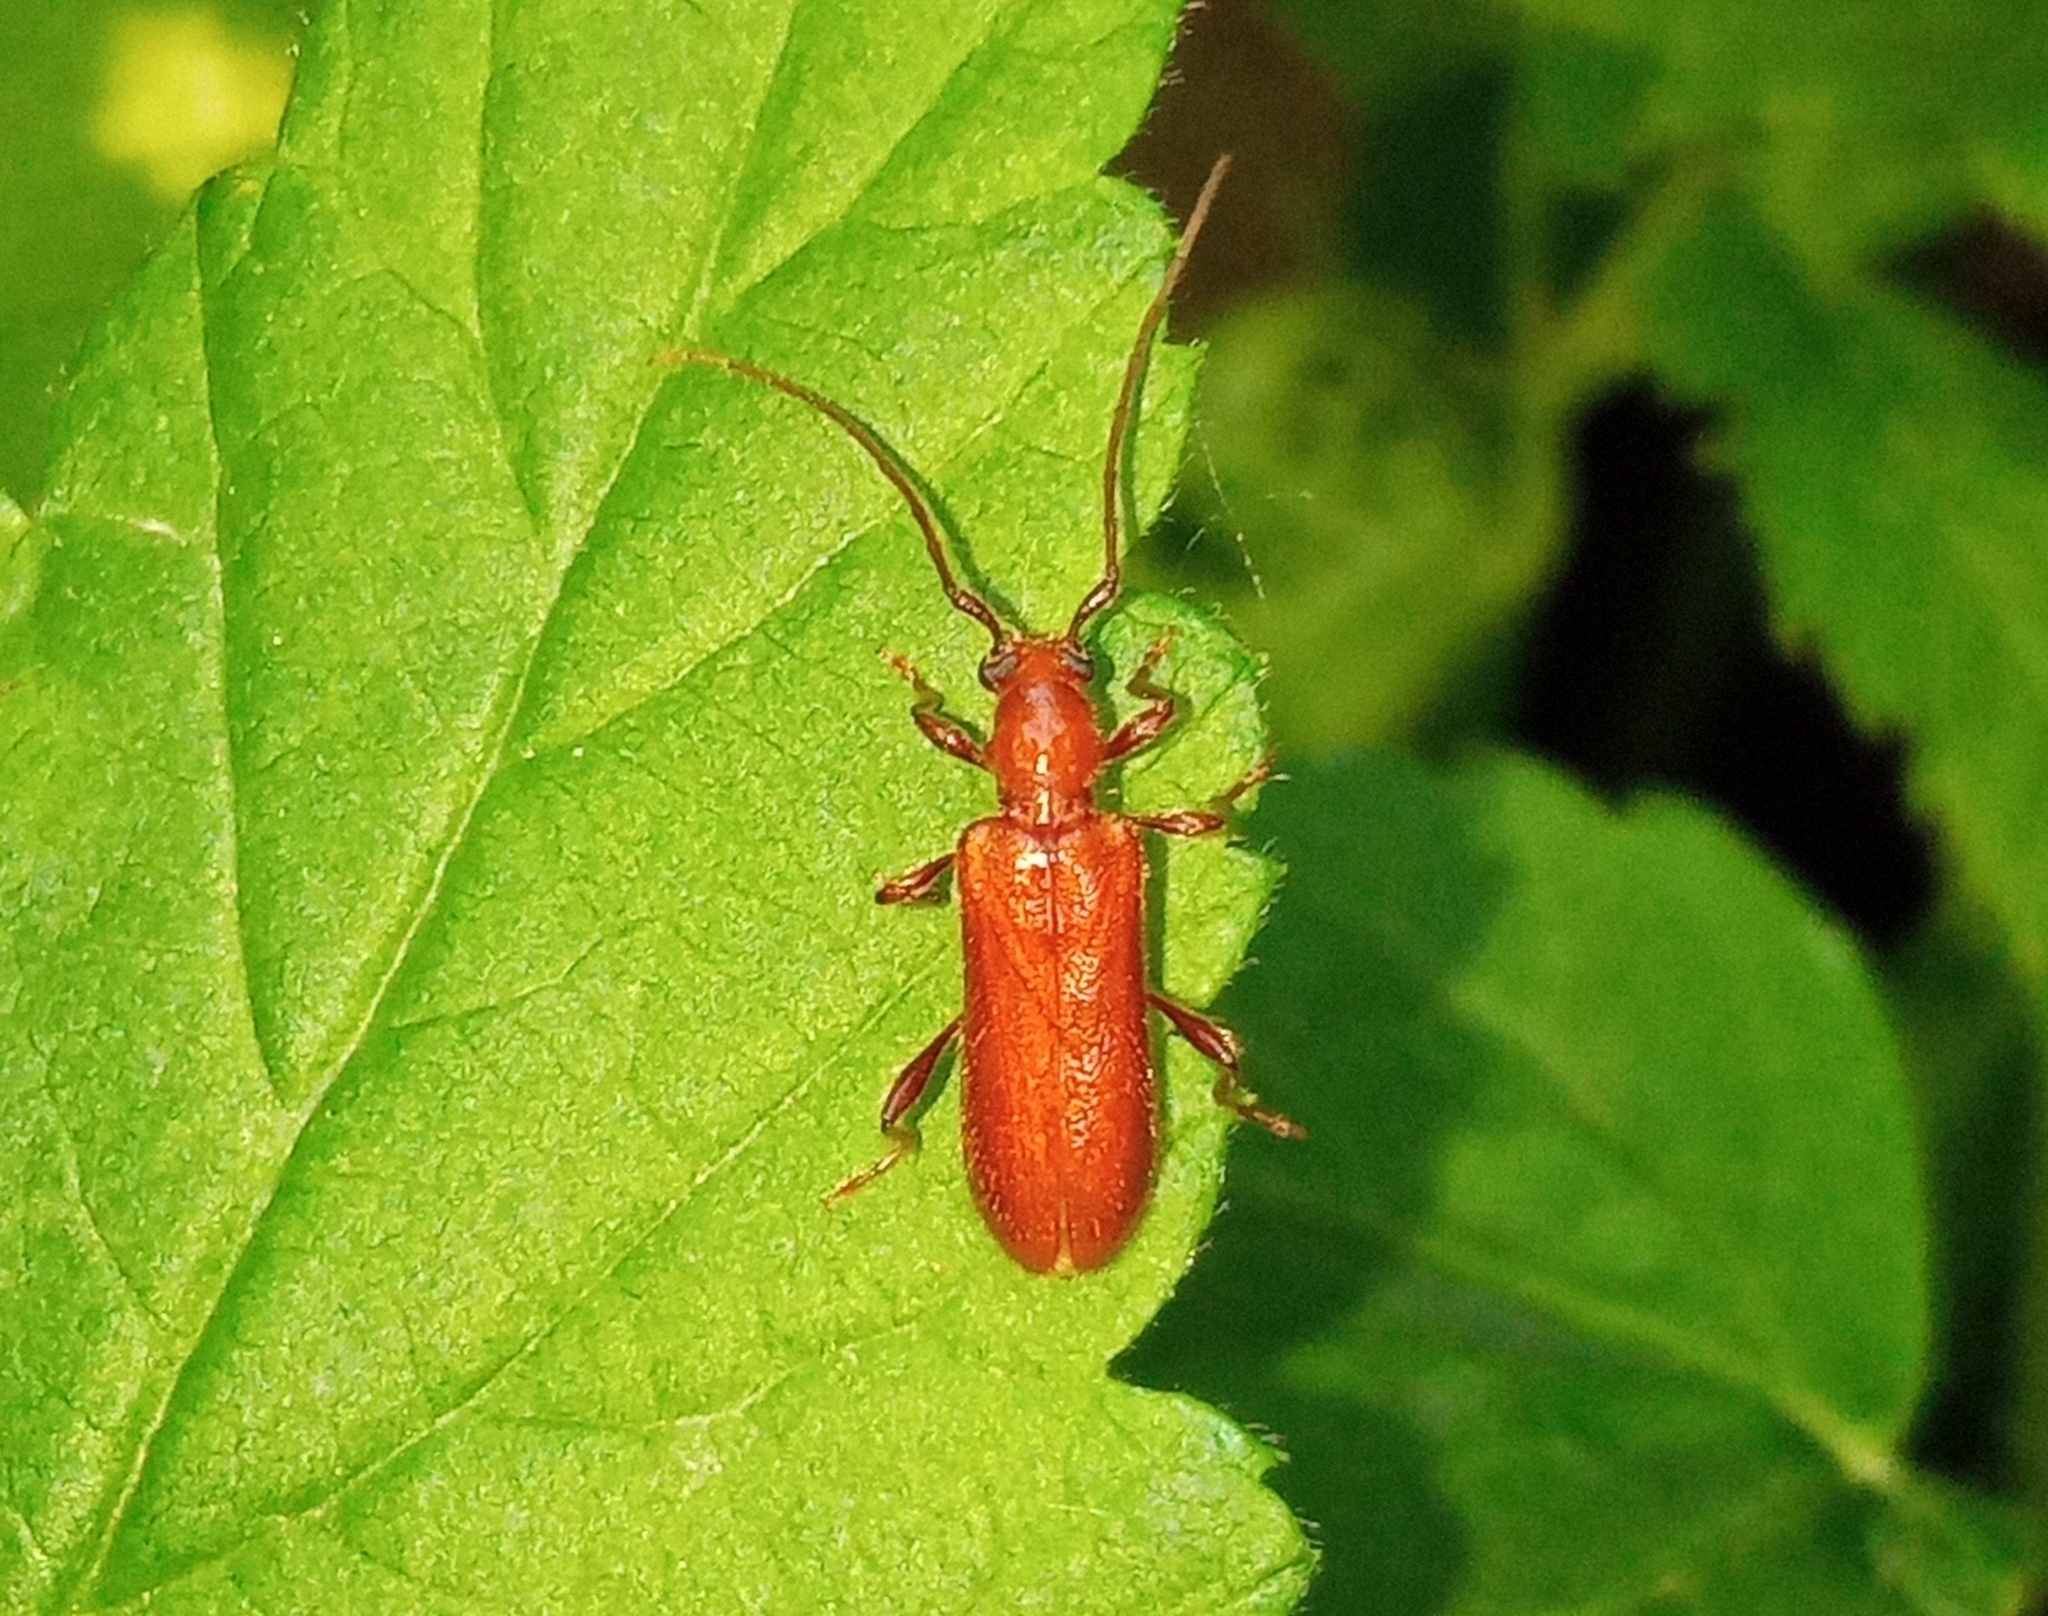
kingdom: Animalia
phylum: Arthropoda
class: Insecta
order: Coleoptera
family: Cerambycidae
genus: Obrium
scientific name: Obrium cantharinum
